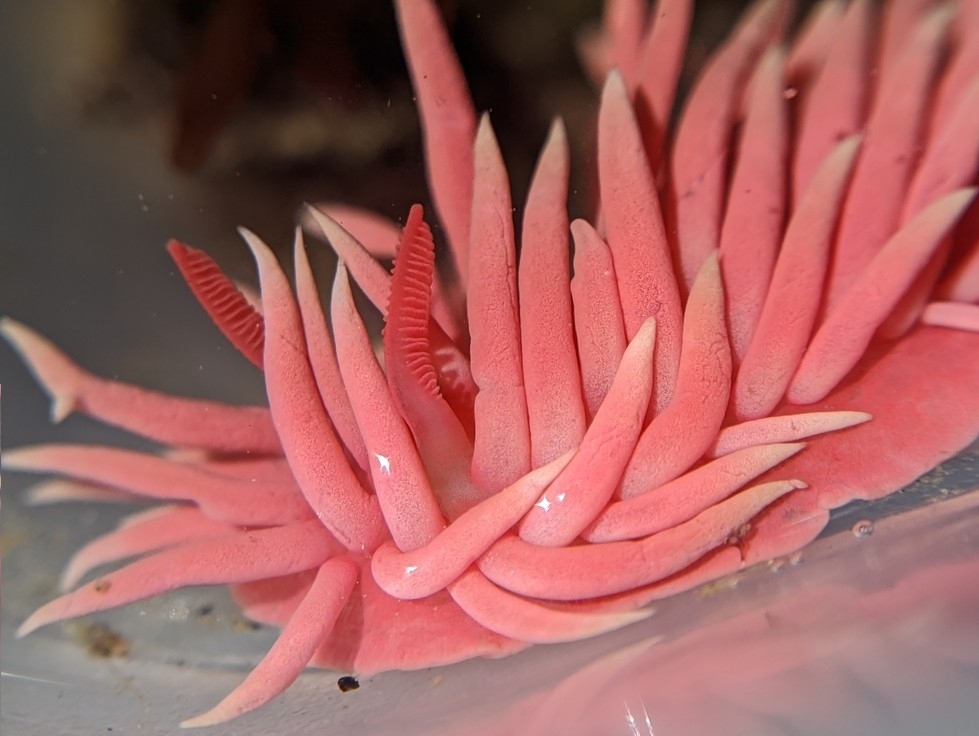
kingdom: Animalia
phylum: Mollusca
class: Gastropoda
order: Nudibranchia
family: Goniodorididae
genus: Okenia
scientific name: Okenia
